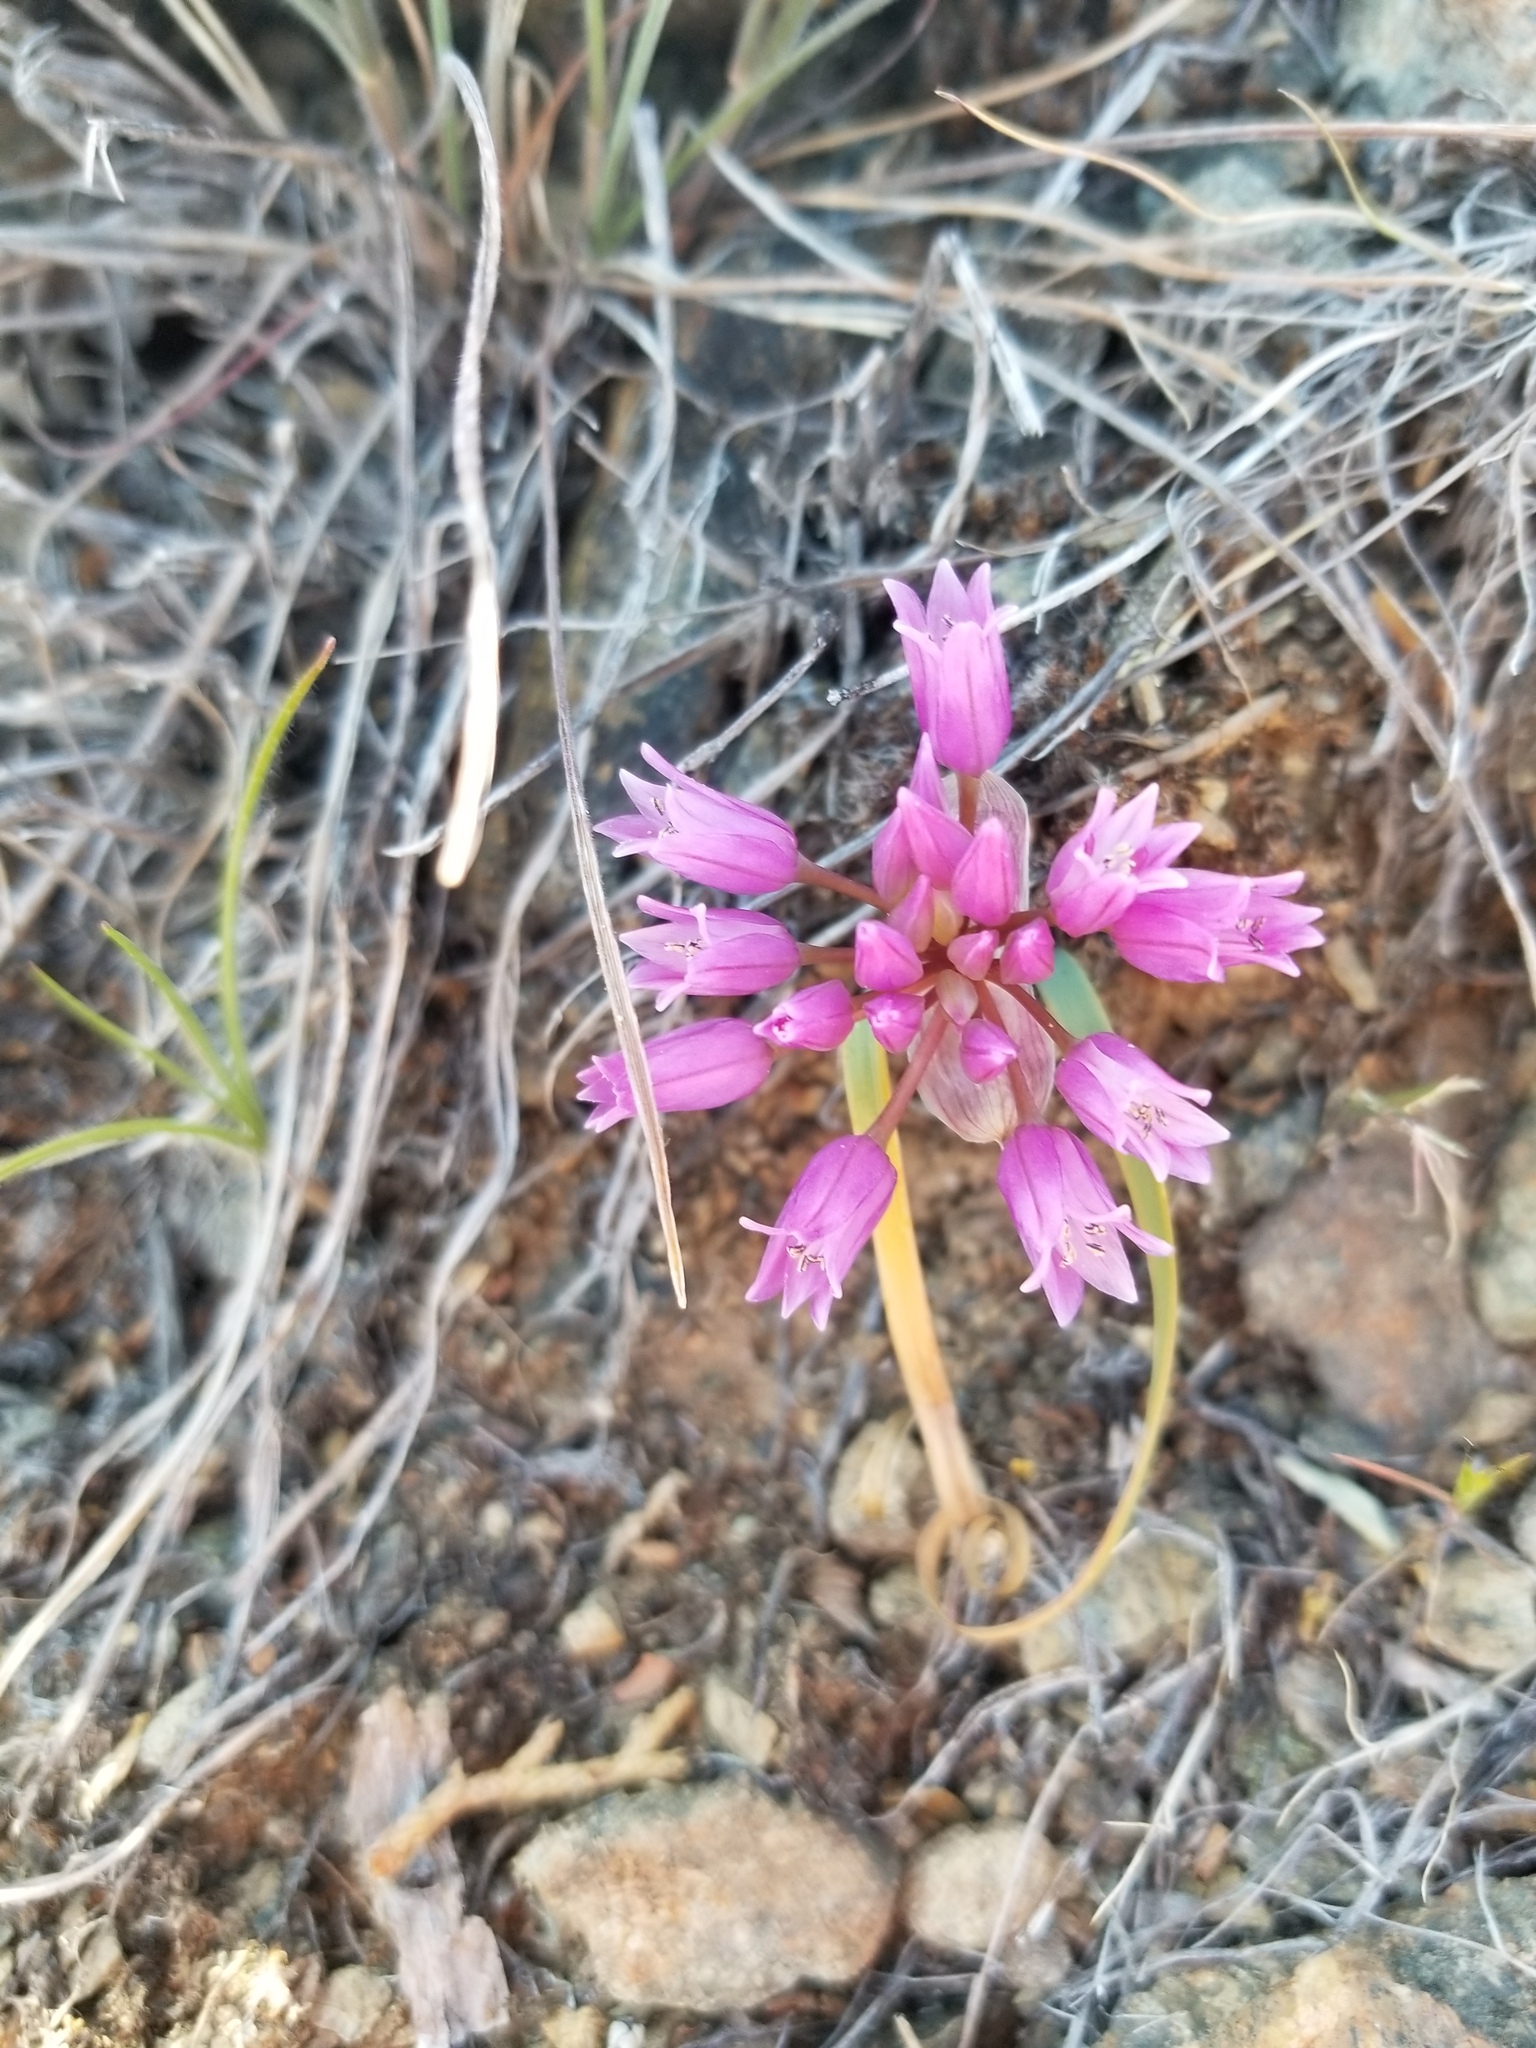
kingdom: Plantae
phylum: Tracheophyta
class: Liliopsida
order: Asparagales
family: Amaryllidaceae
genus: Allium
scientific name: Allium siskiyouense
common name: Siskiyou onion
